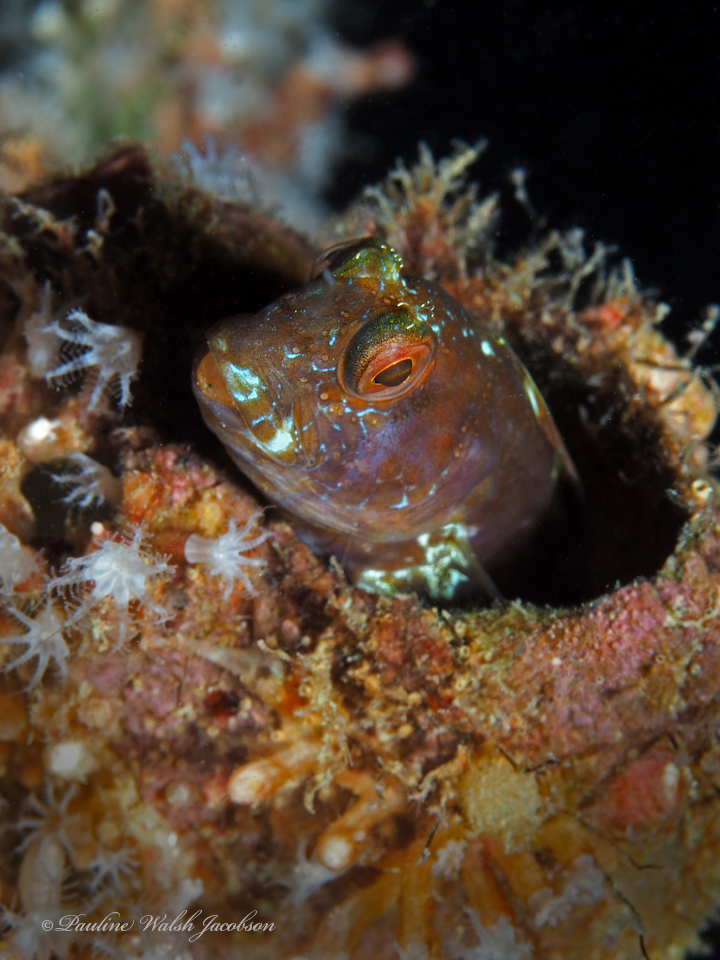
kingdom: Animalia
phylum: Chordata
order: Perciformes
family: Blenniidae
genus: Parablennius
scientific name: Parablennius marmoreus
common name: Seaweed blenny
